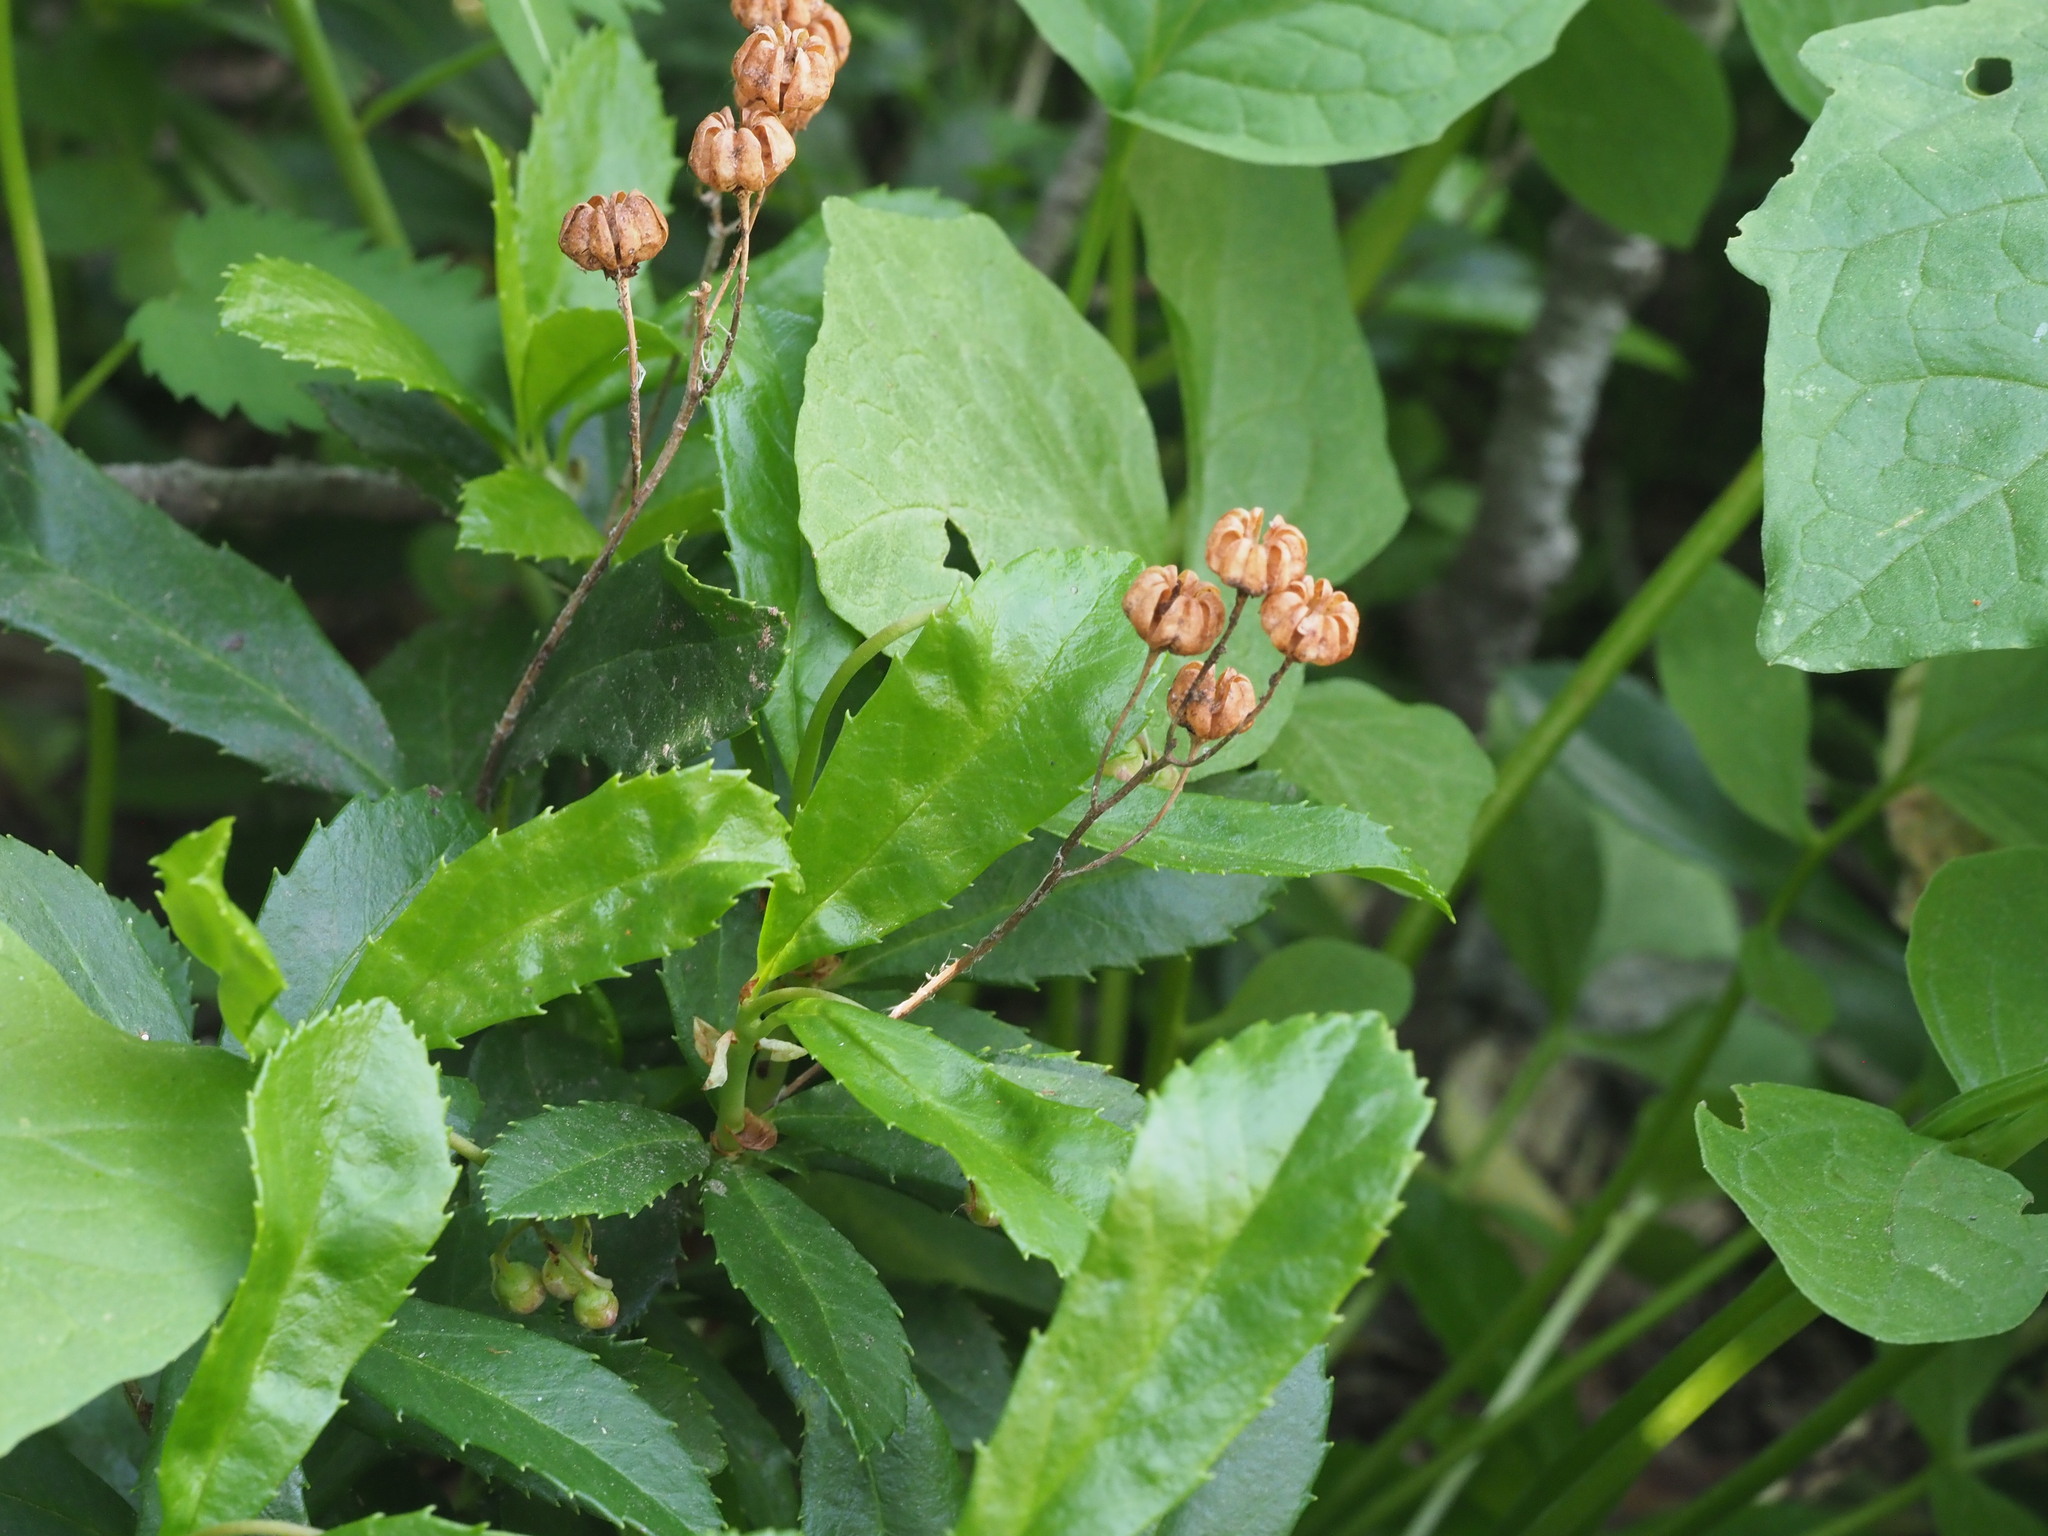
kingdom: Plantae
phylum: Tracheophyta
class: Magnoliopsida
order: Ericales
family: Ericaceae
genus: Chimaphila
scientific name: Chimaphila umbellata
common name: Pipsissewa
